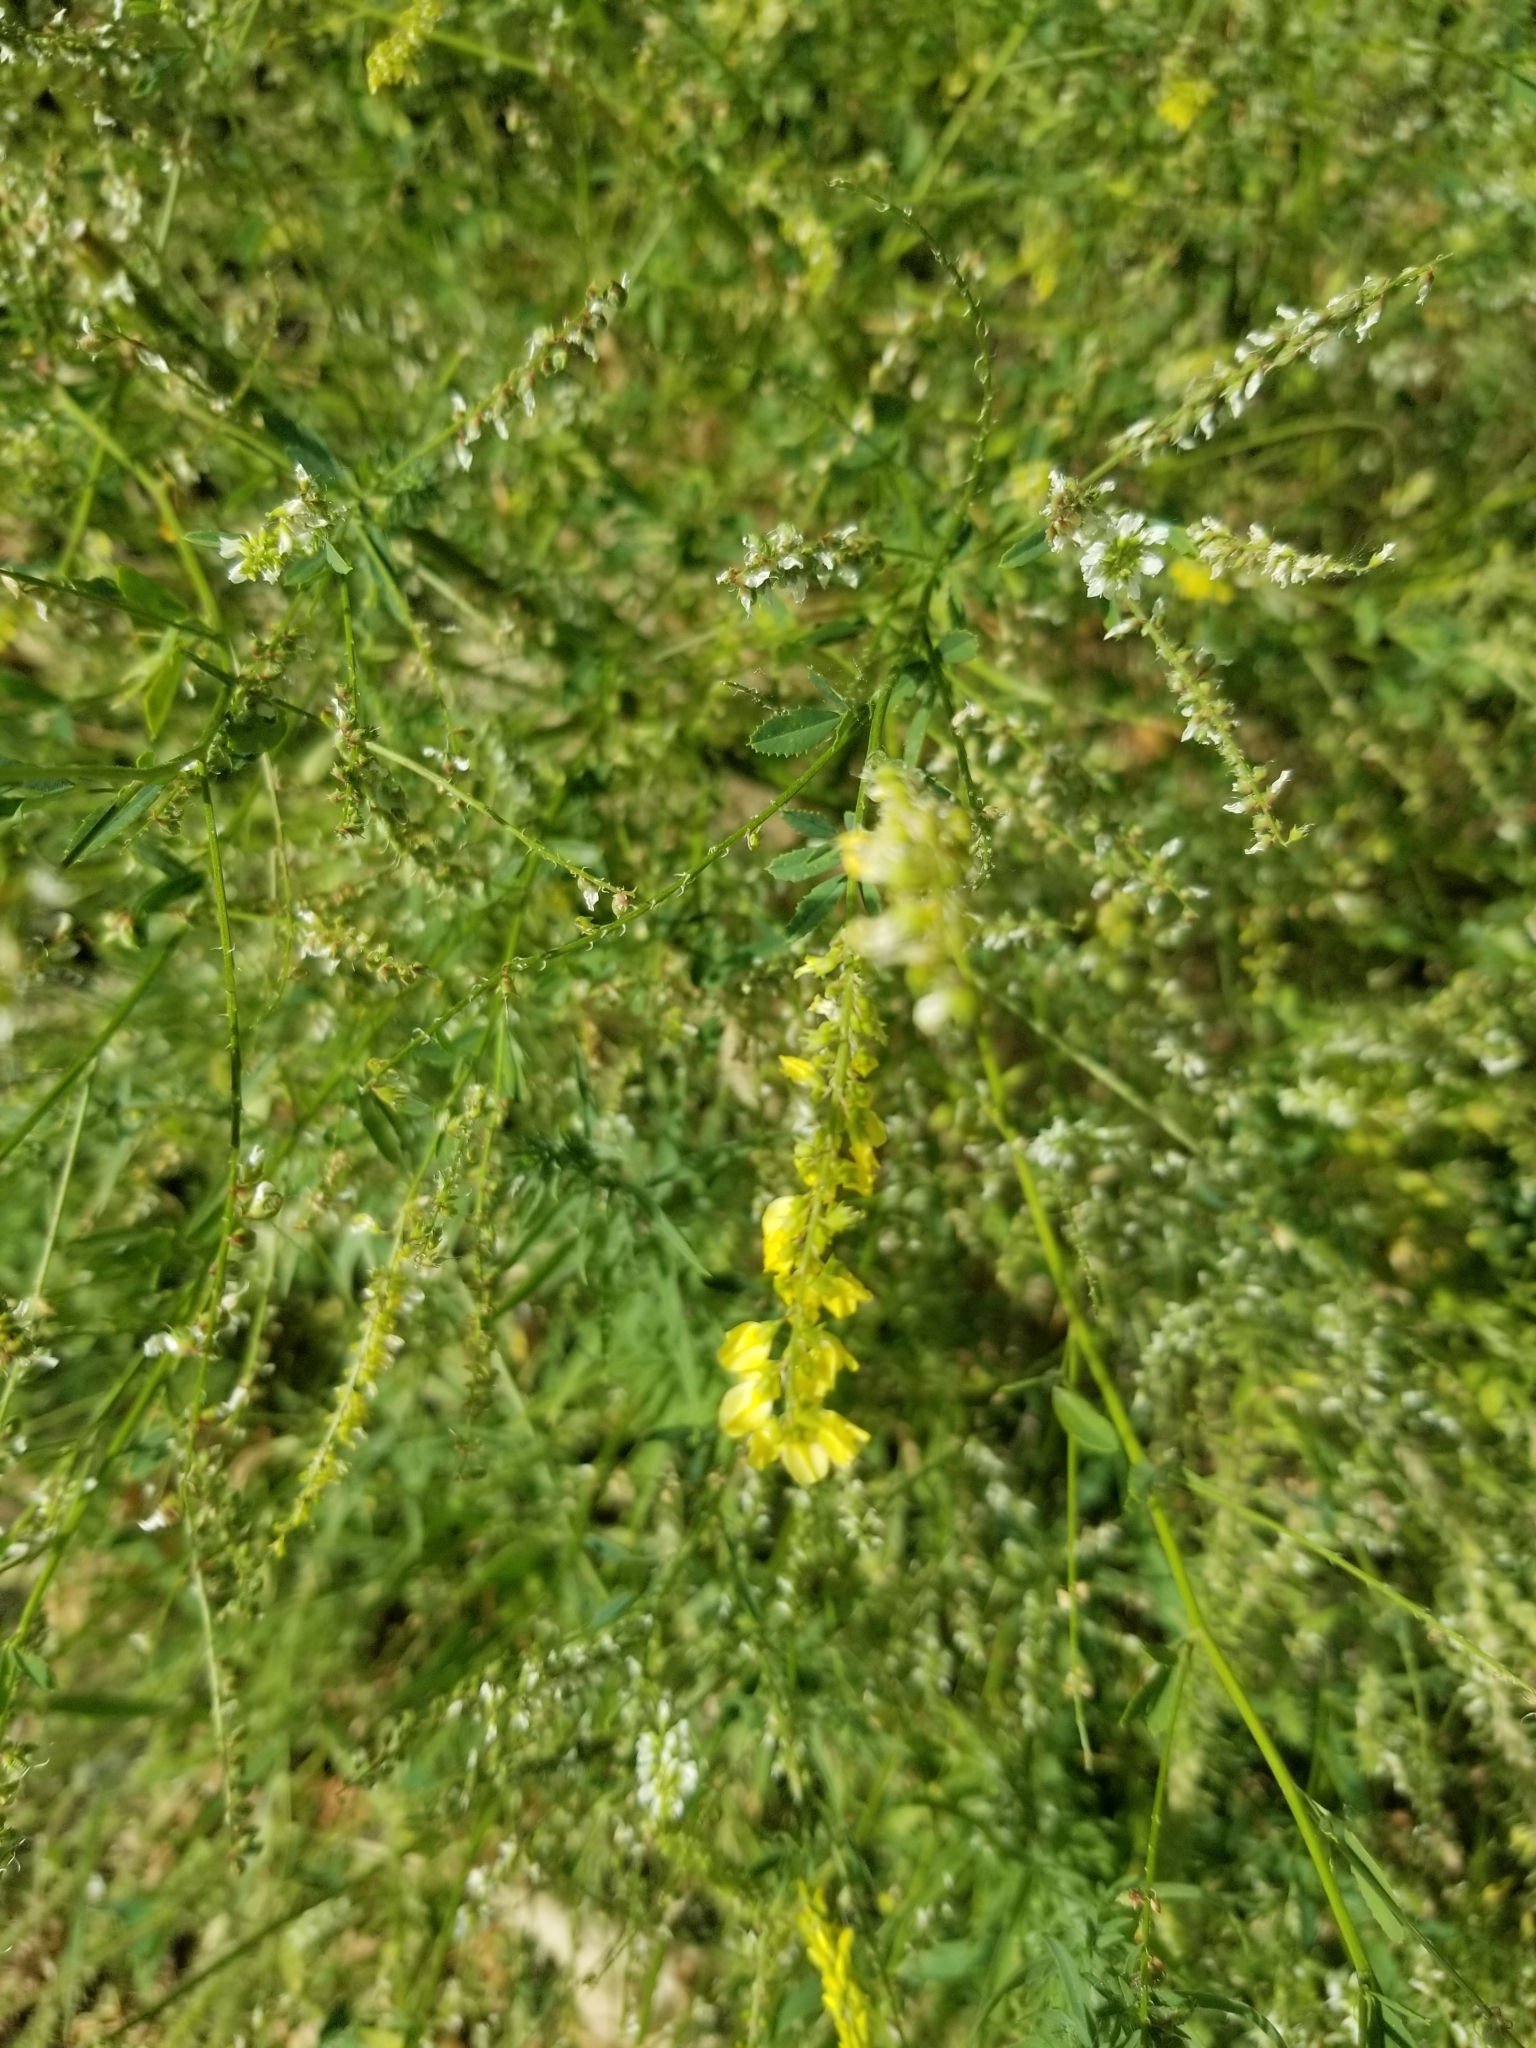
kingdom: Plantae
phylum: Tracheophyta
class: Magnoliopsida
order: Fabales
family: Fabaceae
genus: Melilotus
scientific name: Melilotus officinalis
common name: Sweetclover
